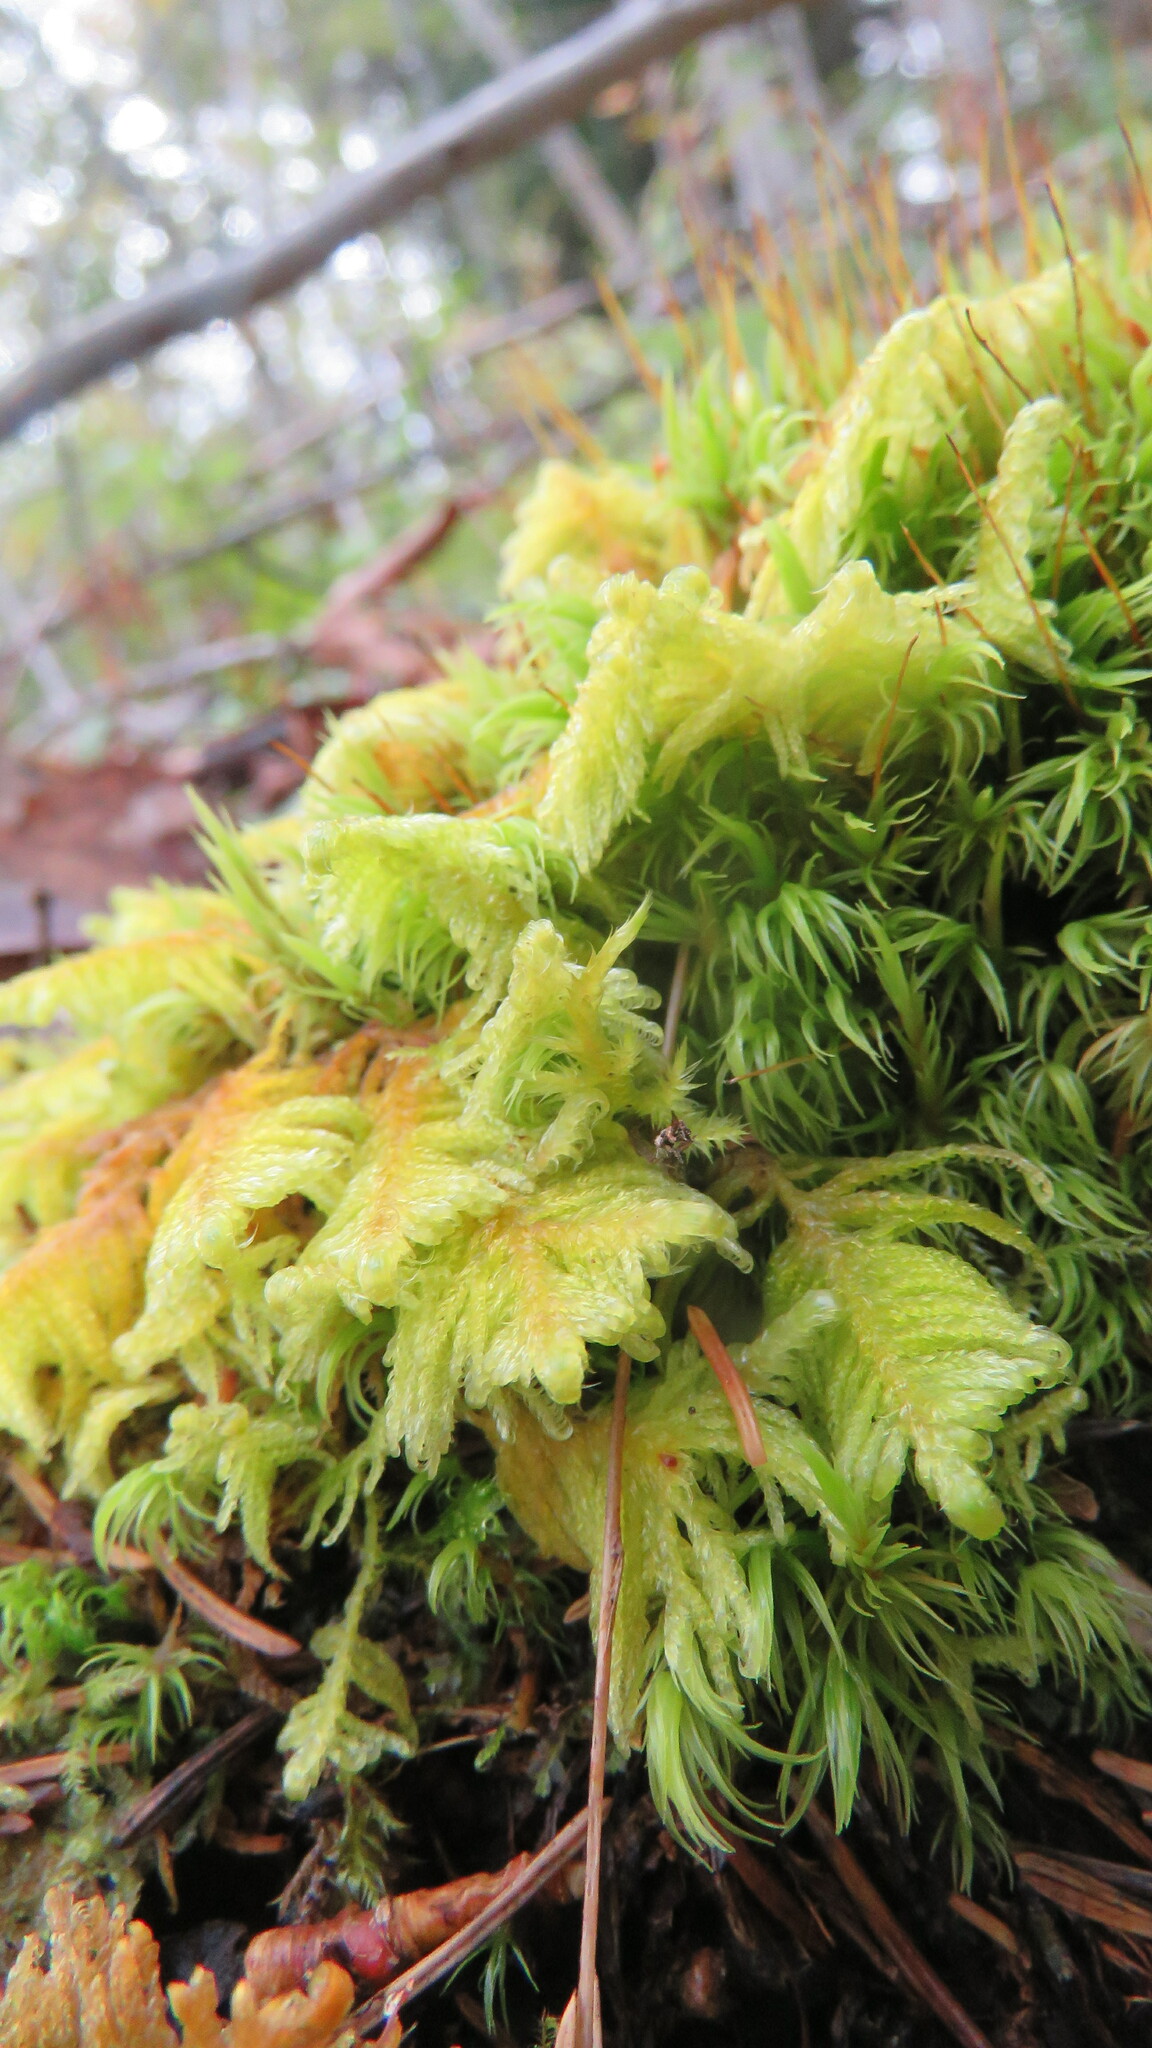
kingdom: Plantae
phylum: Bryophyta
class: Bryopsida
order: Hypnales
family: Pylaisiaceae
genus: Ptilium
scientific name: Ptilium crista-castrensis
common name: Knight's plume moss
